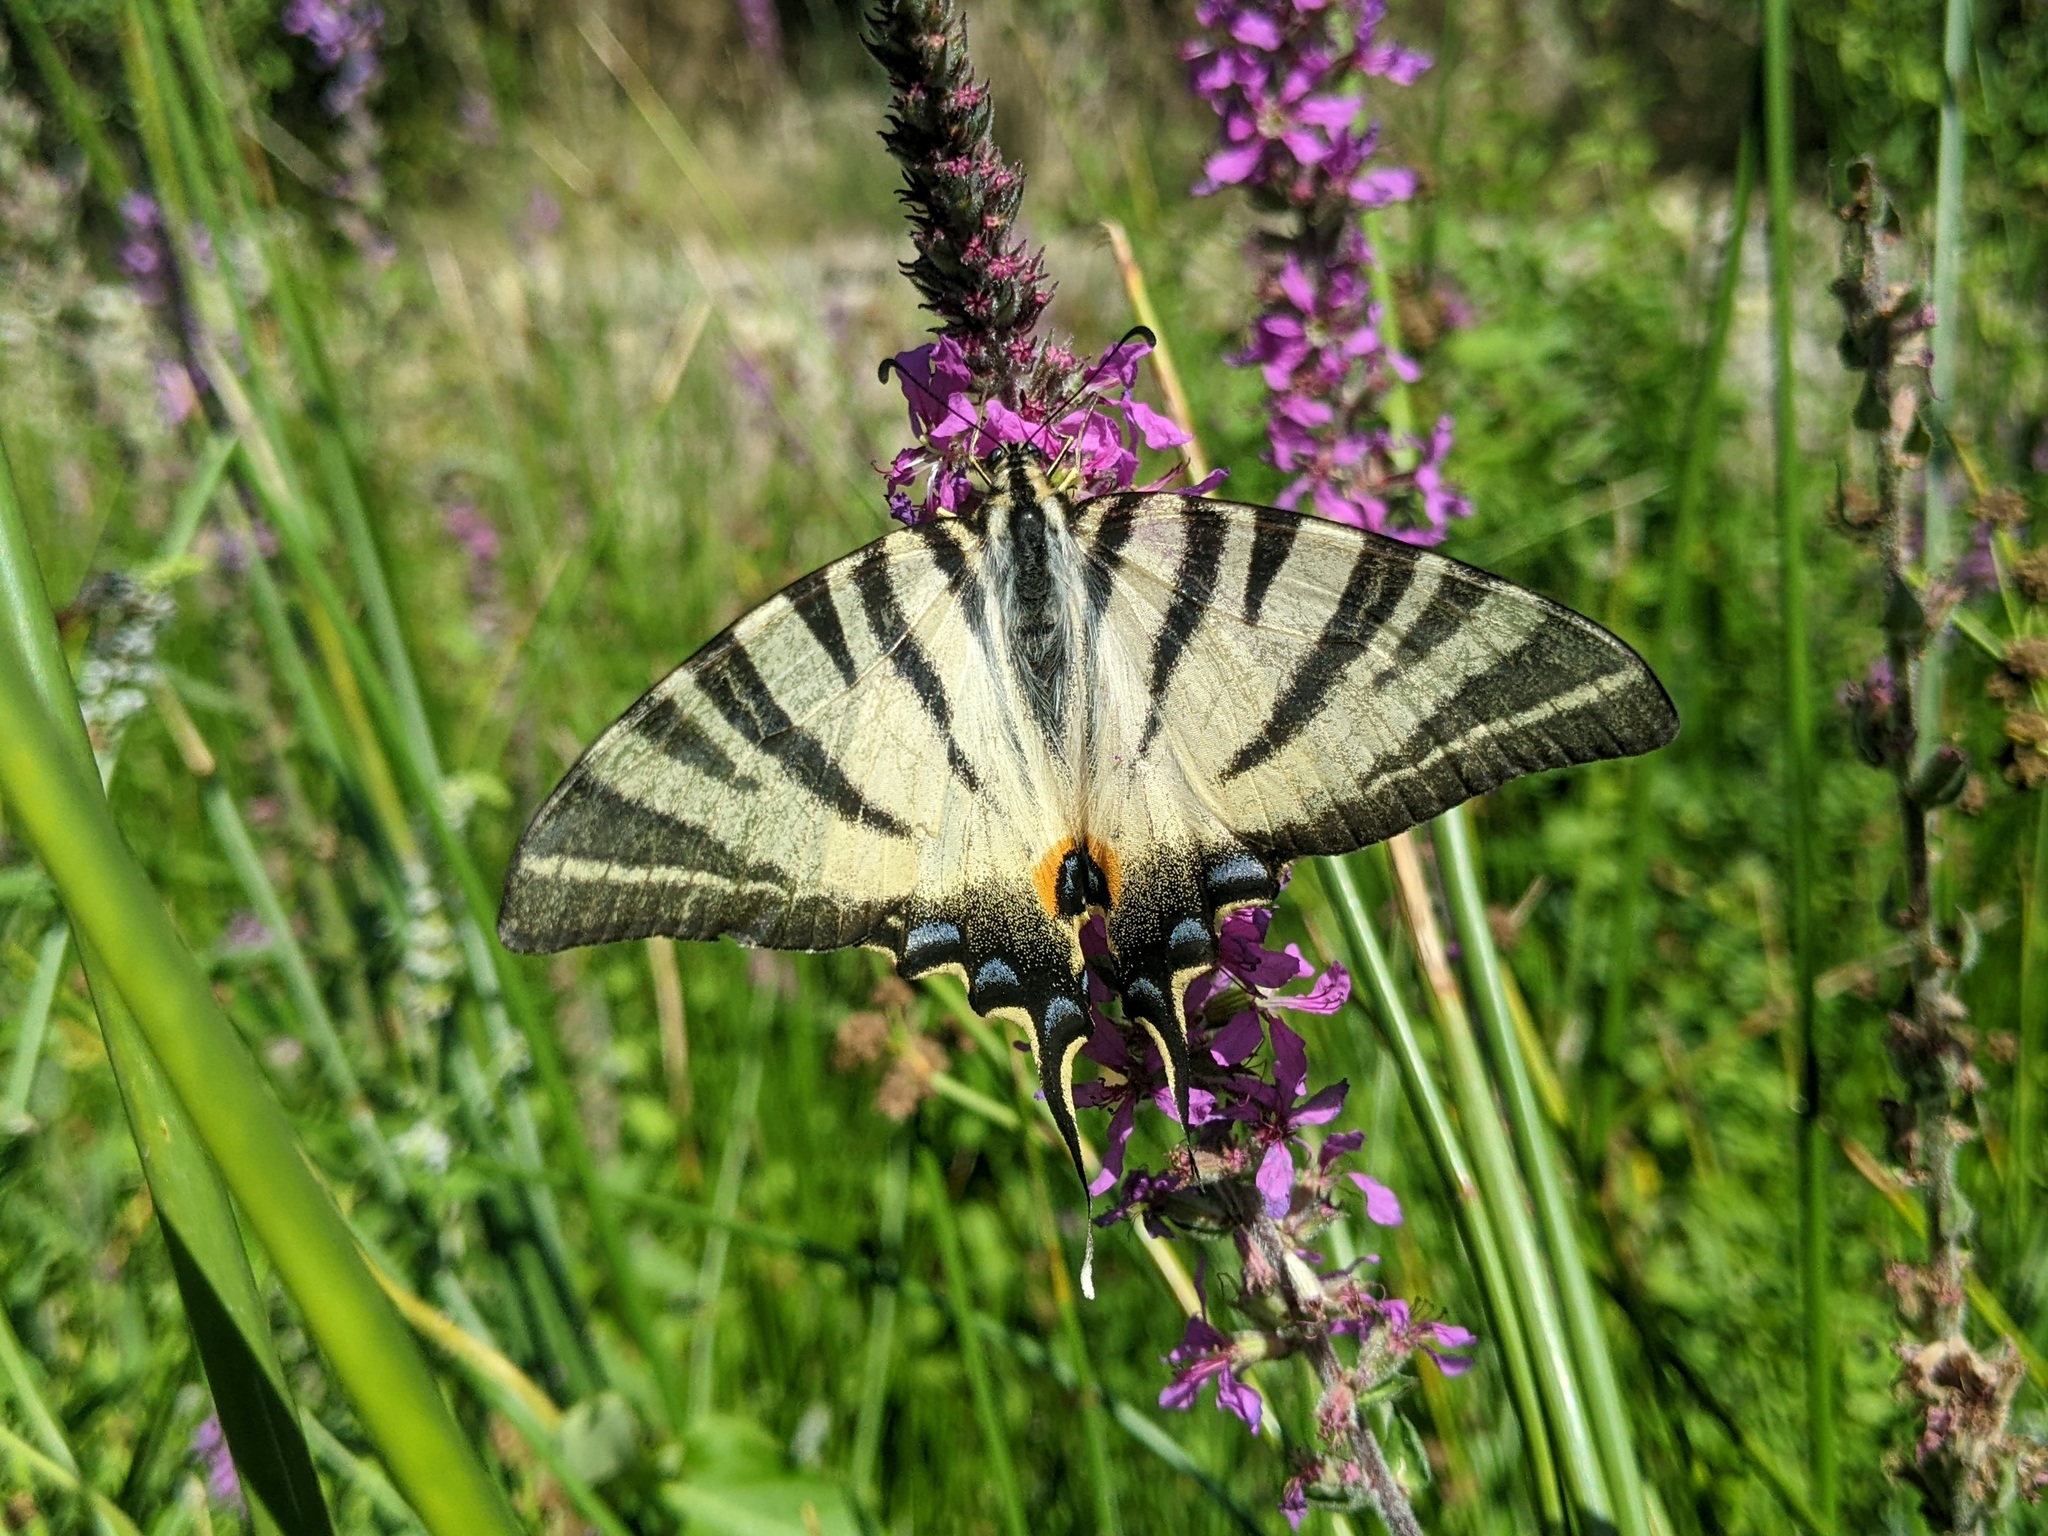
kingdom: Animalia
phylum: Arthropoda
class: Insecta
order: Lepidoptera
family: Papilionidae
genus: Iphiclides
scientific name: Iphiclides podalirius
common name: Scarce swallowtail
